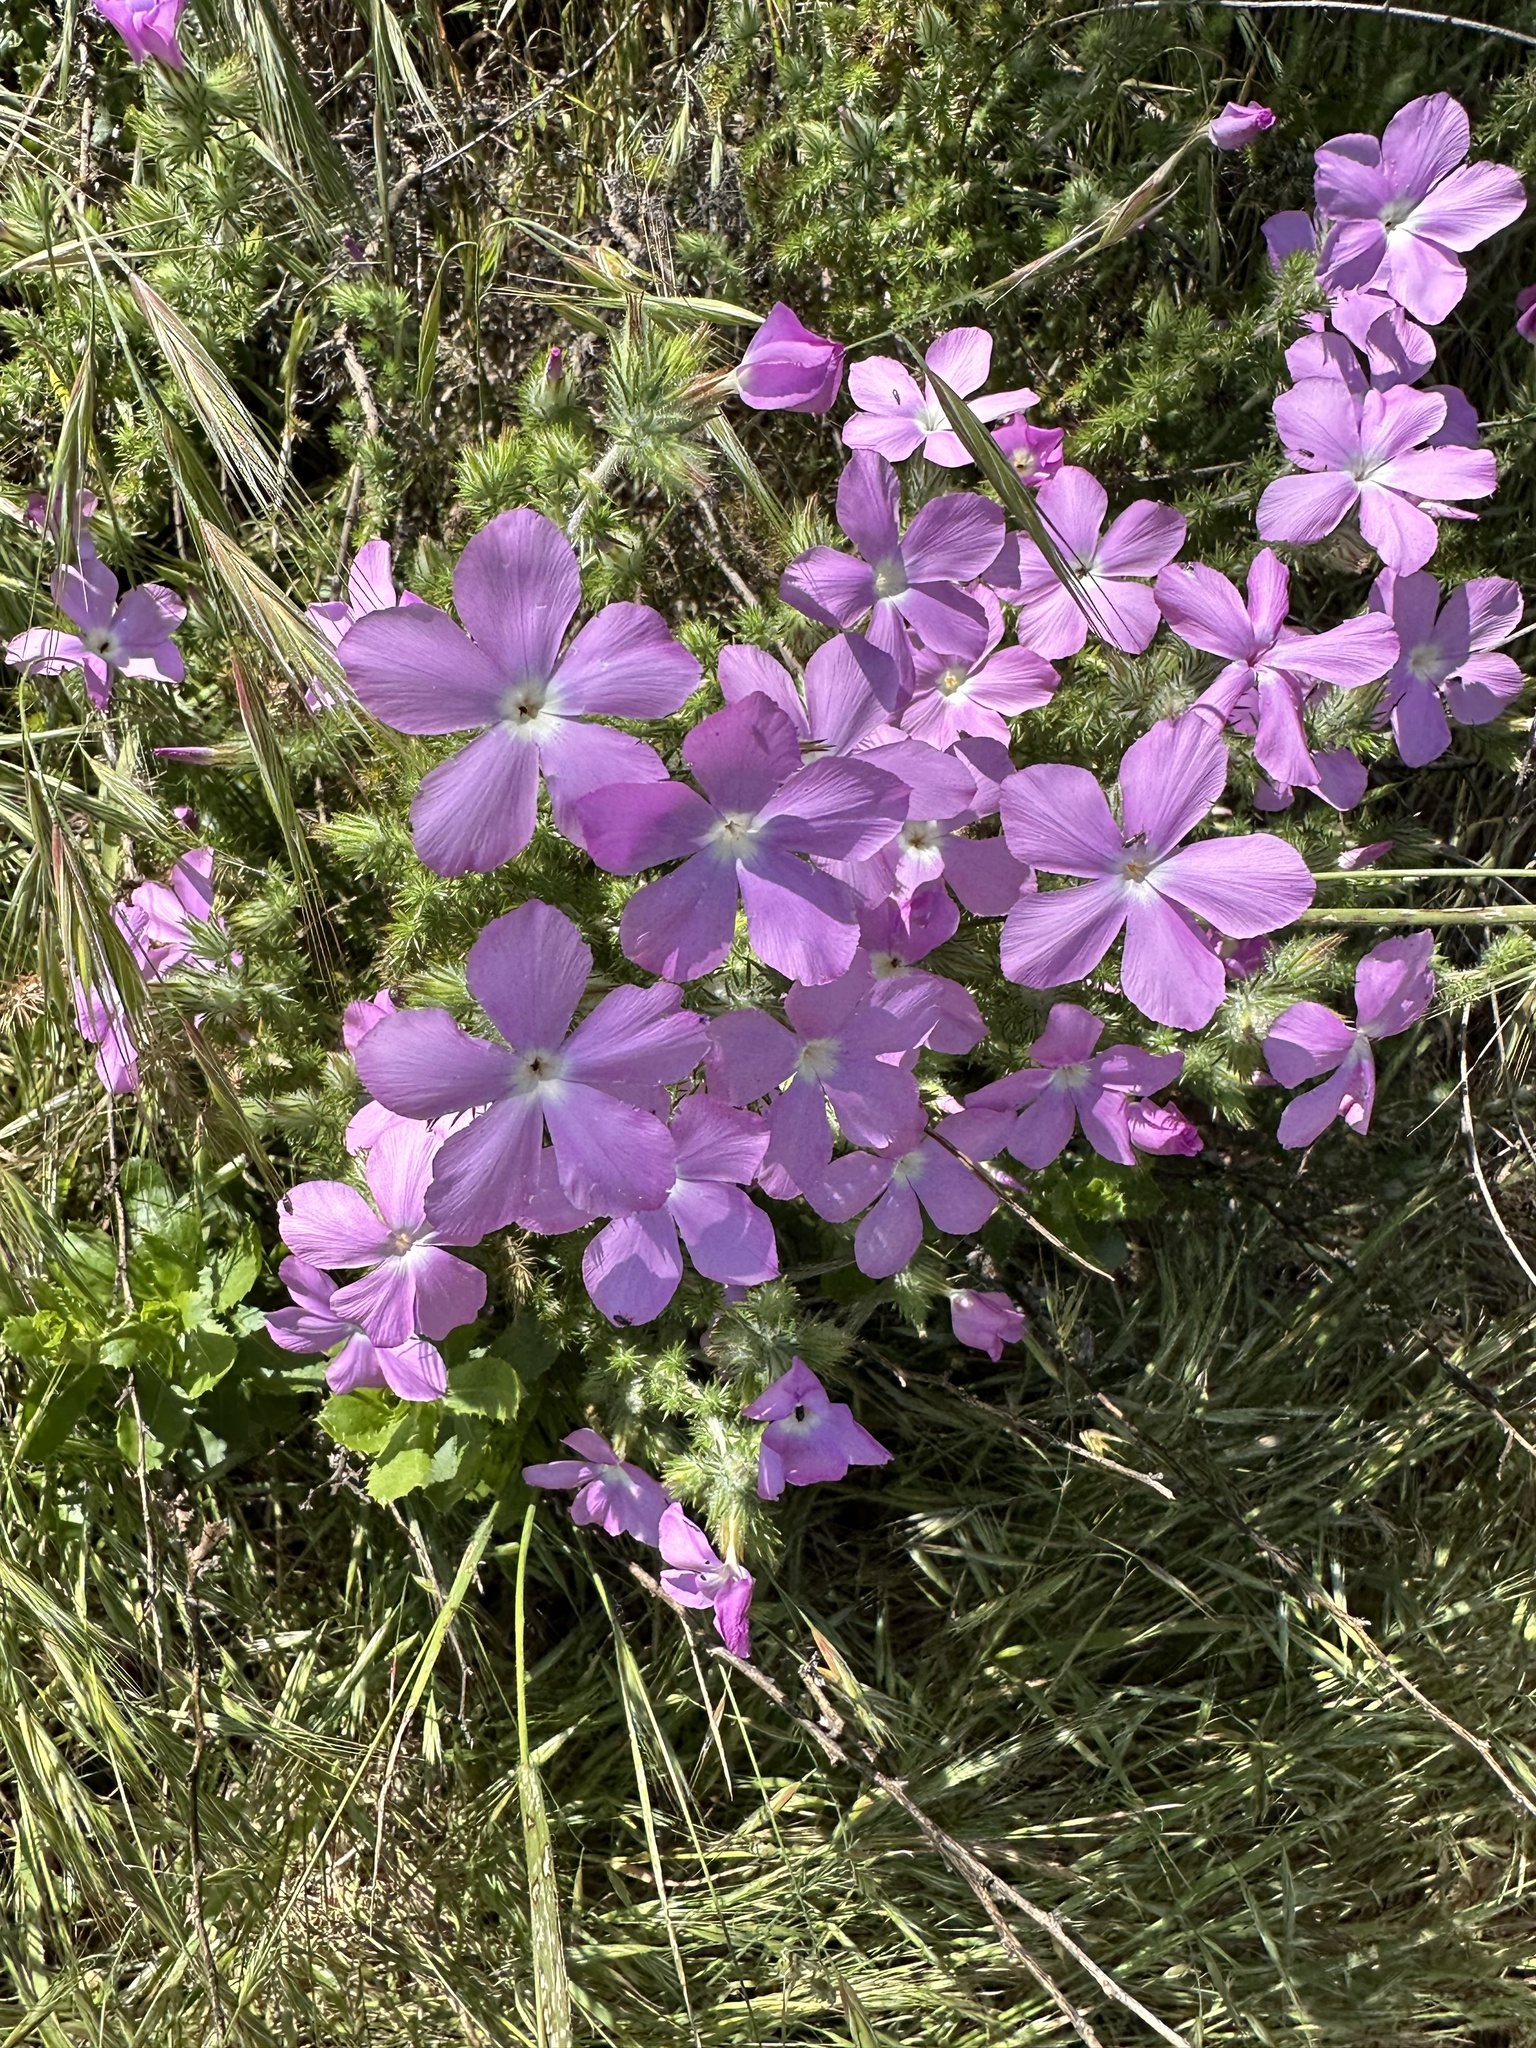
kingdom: Plantae
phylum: Tracheophyta
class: Magnoliopsida
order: Ericales
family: Polemoniaceae
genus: Linanthus
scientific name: Linanthus californicus
